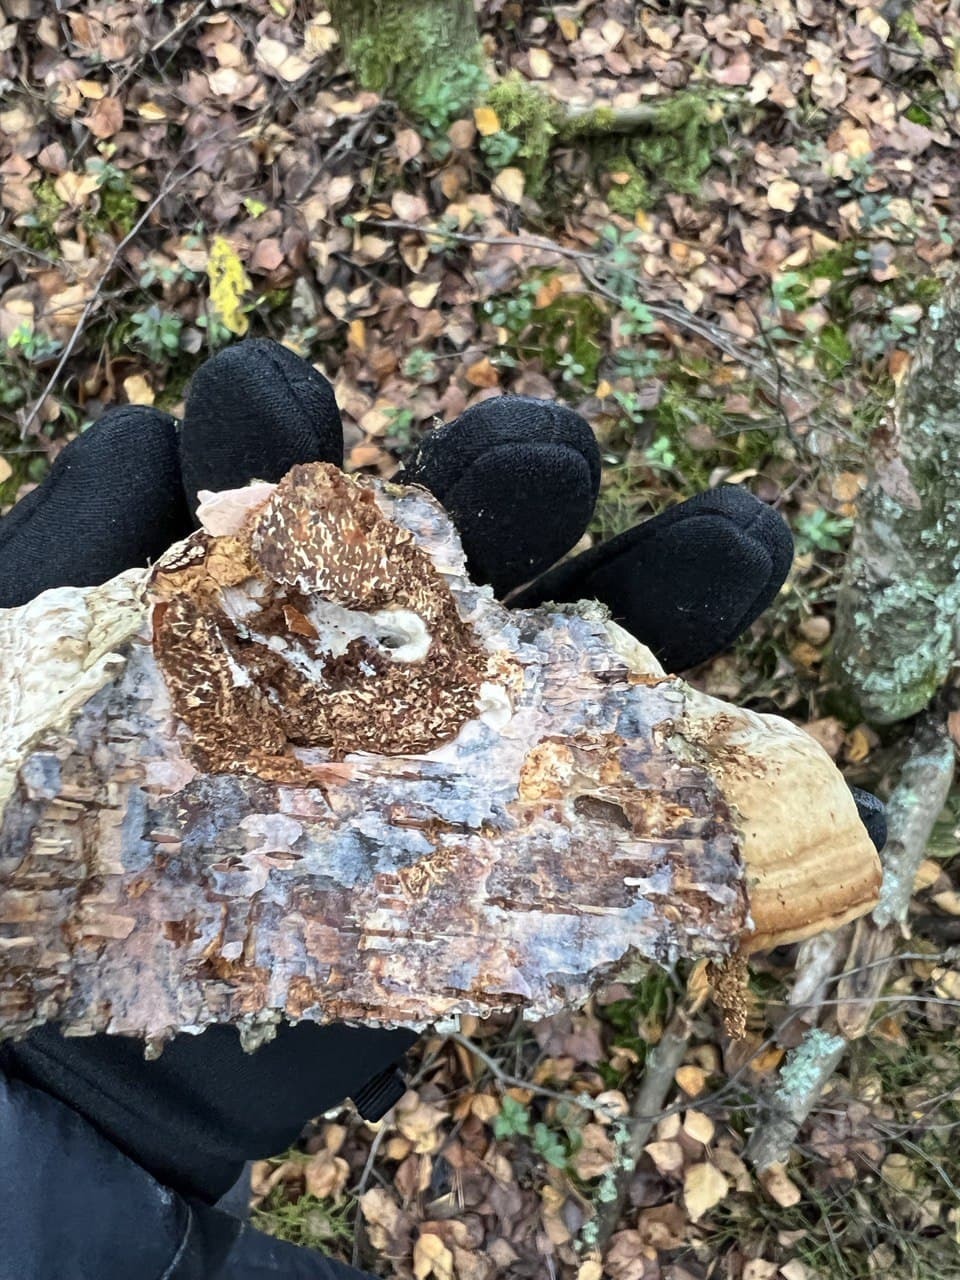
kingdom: Fungi
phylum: Basidiomycota
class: Agaricomycetes
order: Polyporales
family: Polyporaceae
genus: Fomes
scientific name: Fomes fomentarius
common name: Hoof fungus
